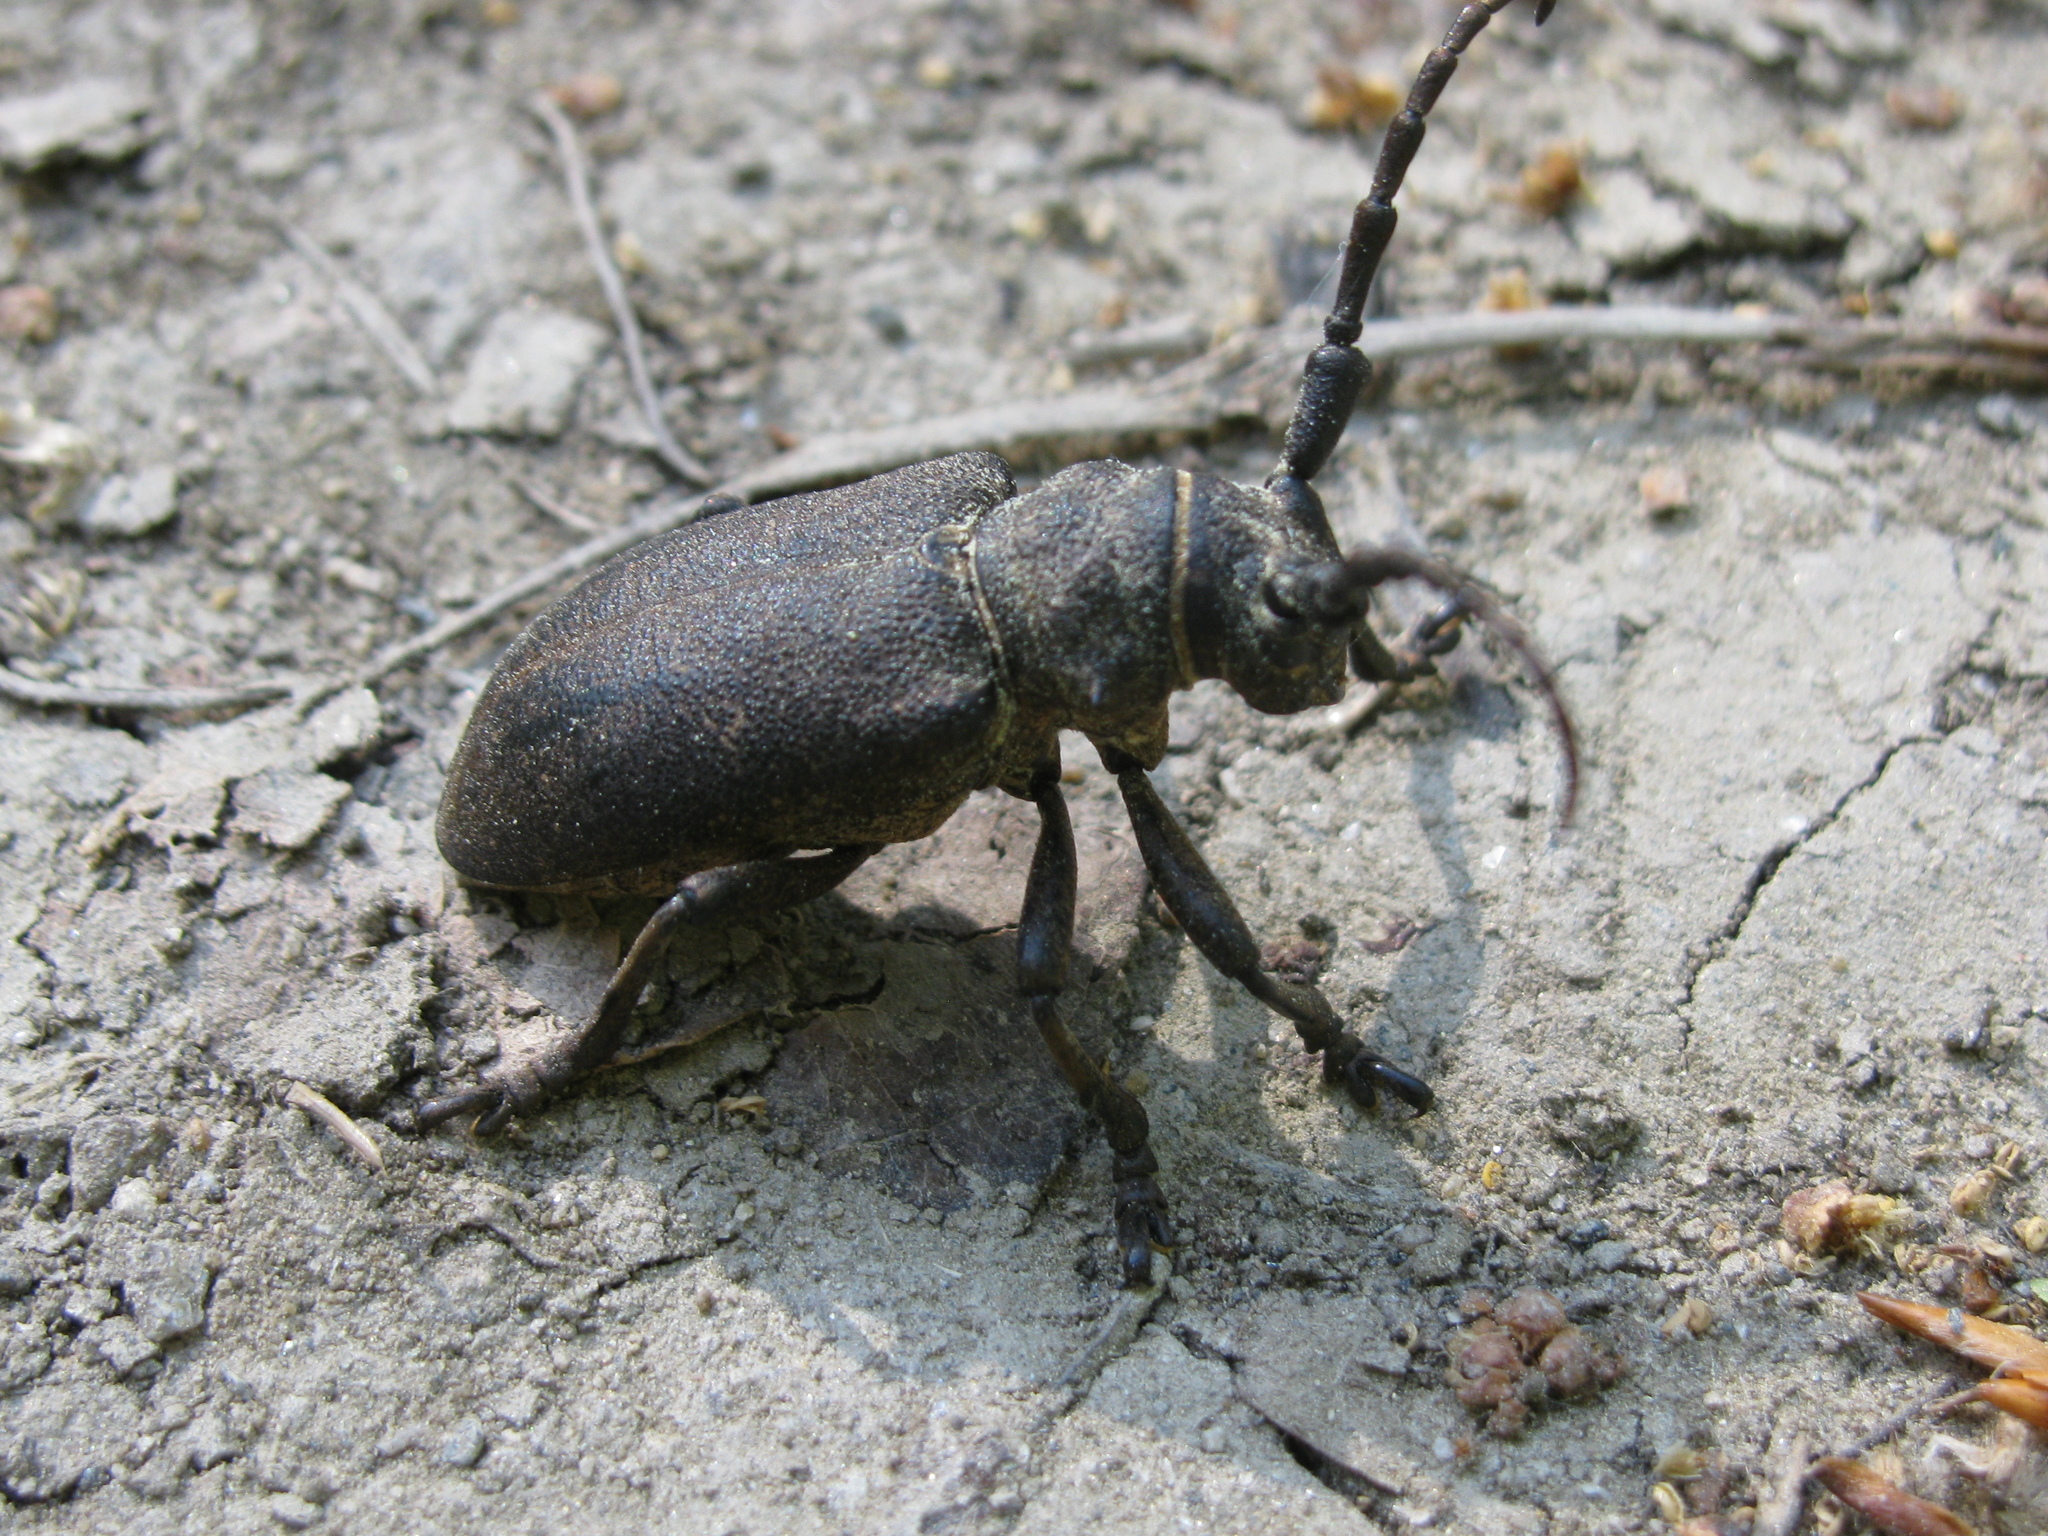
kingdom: Animalia
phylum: Arthropoda
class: Insecta
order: Coleoptera
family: Cerambycidae
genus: Lamia
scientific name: Lamia textor
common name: Weaver beetle
